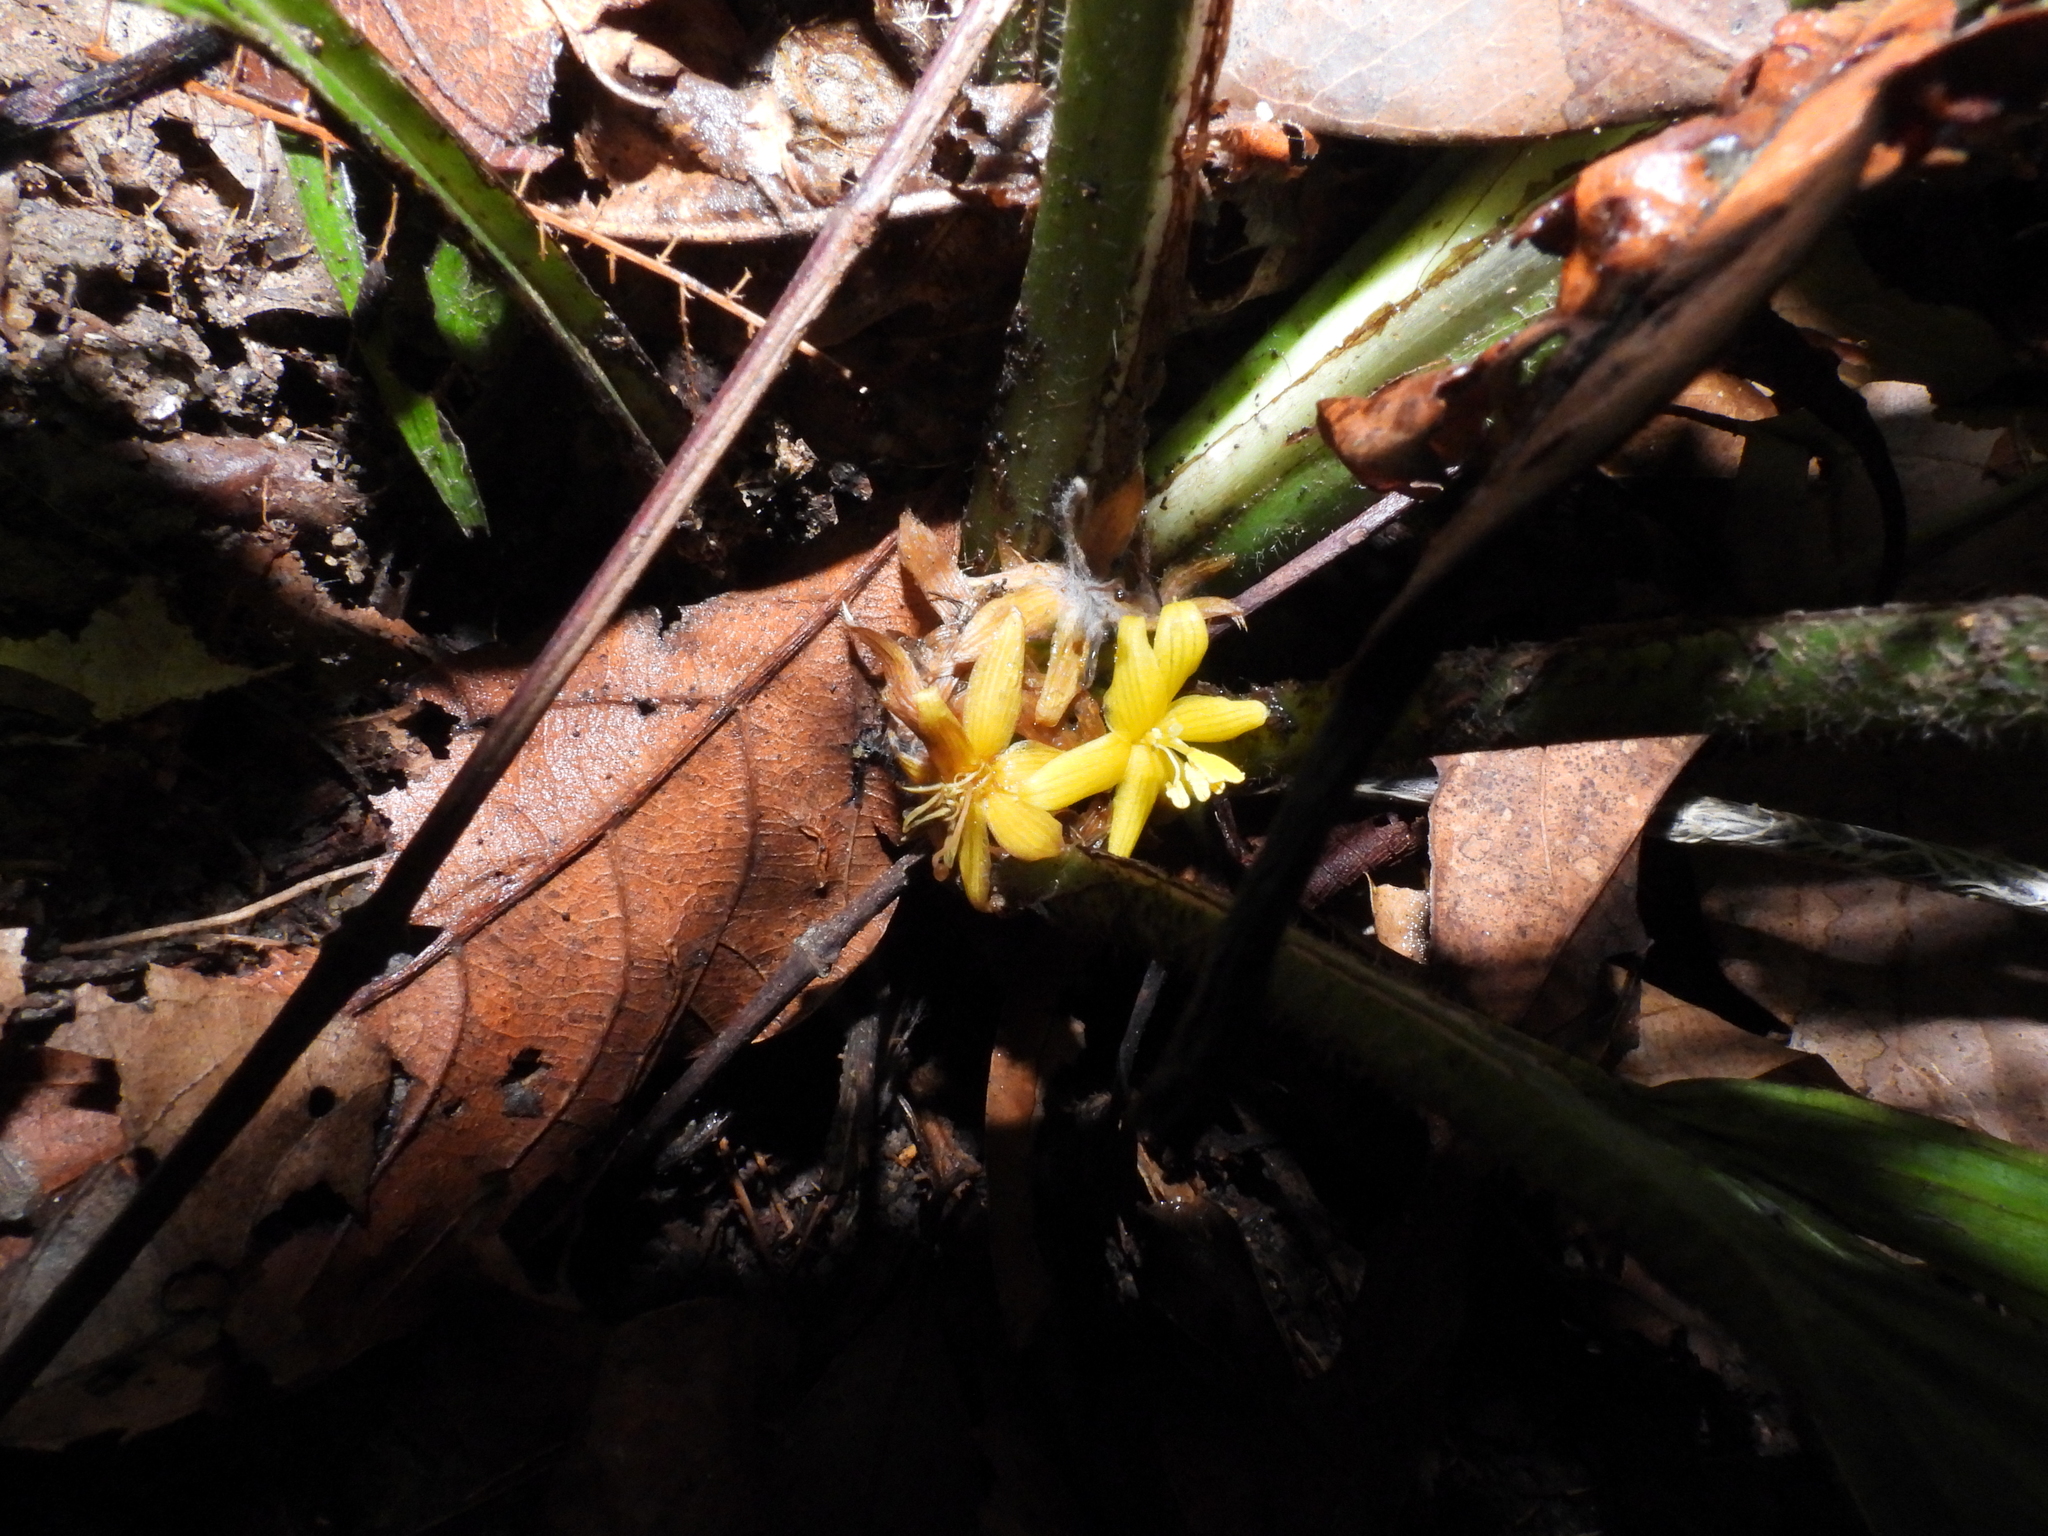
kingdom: Plantae
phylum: Tracheophyta
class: Liliopsida
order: Asparagales
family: Hypoxidaceae
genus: Curculigo
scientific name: Curculigo latifolia
